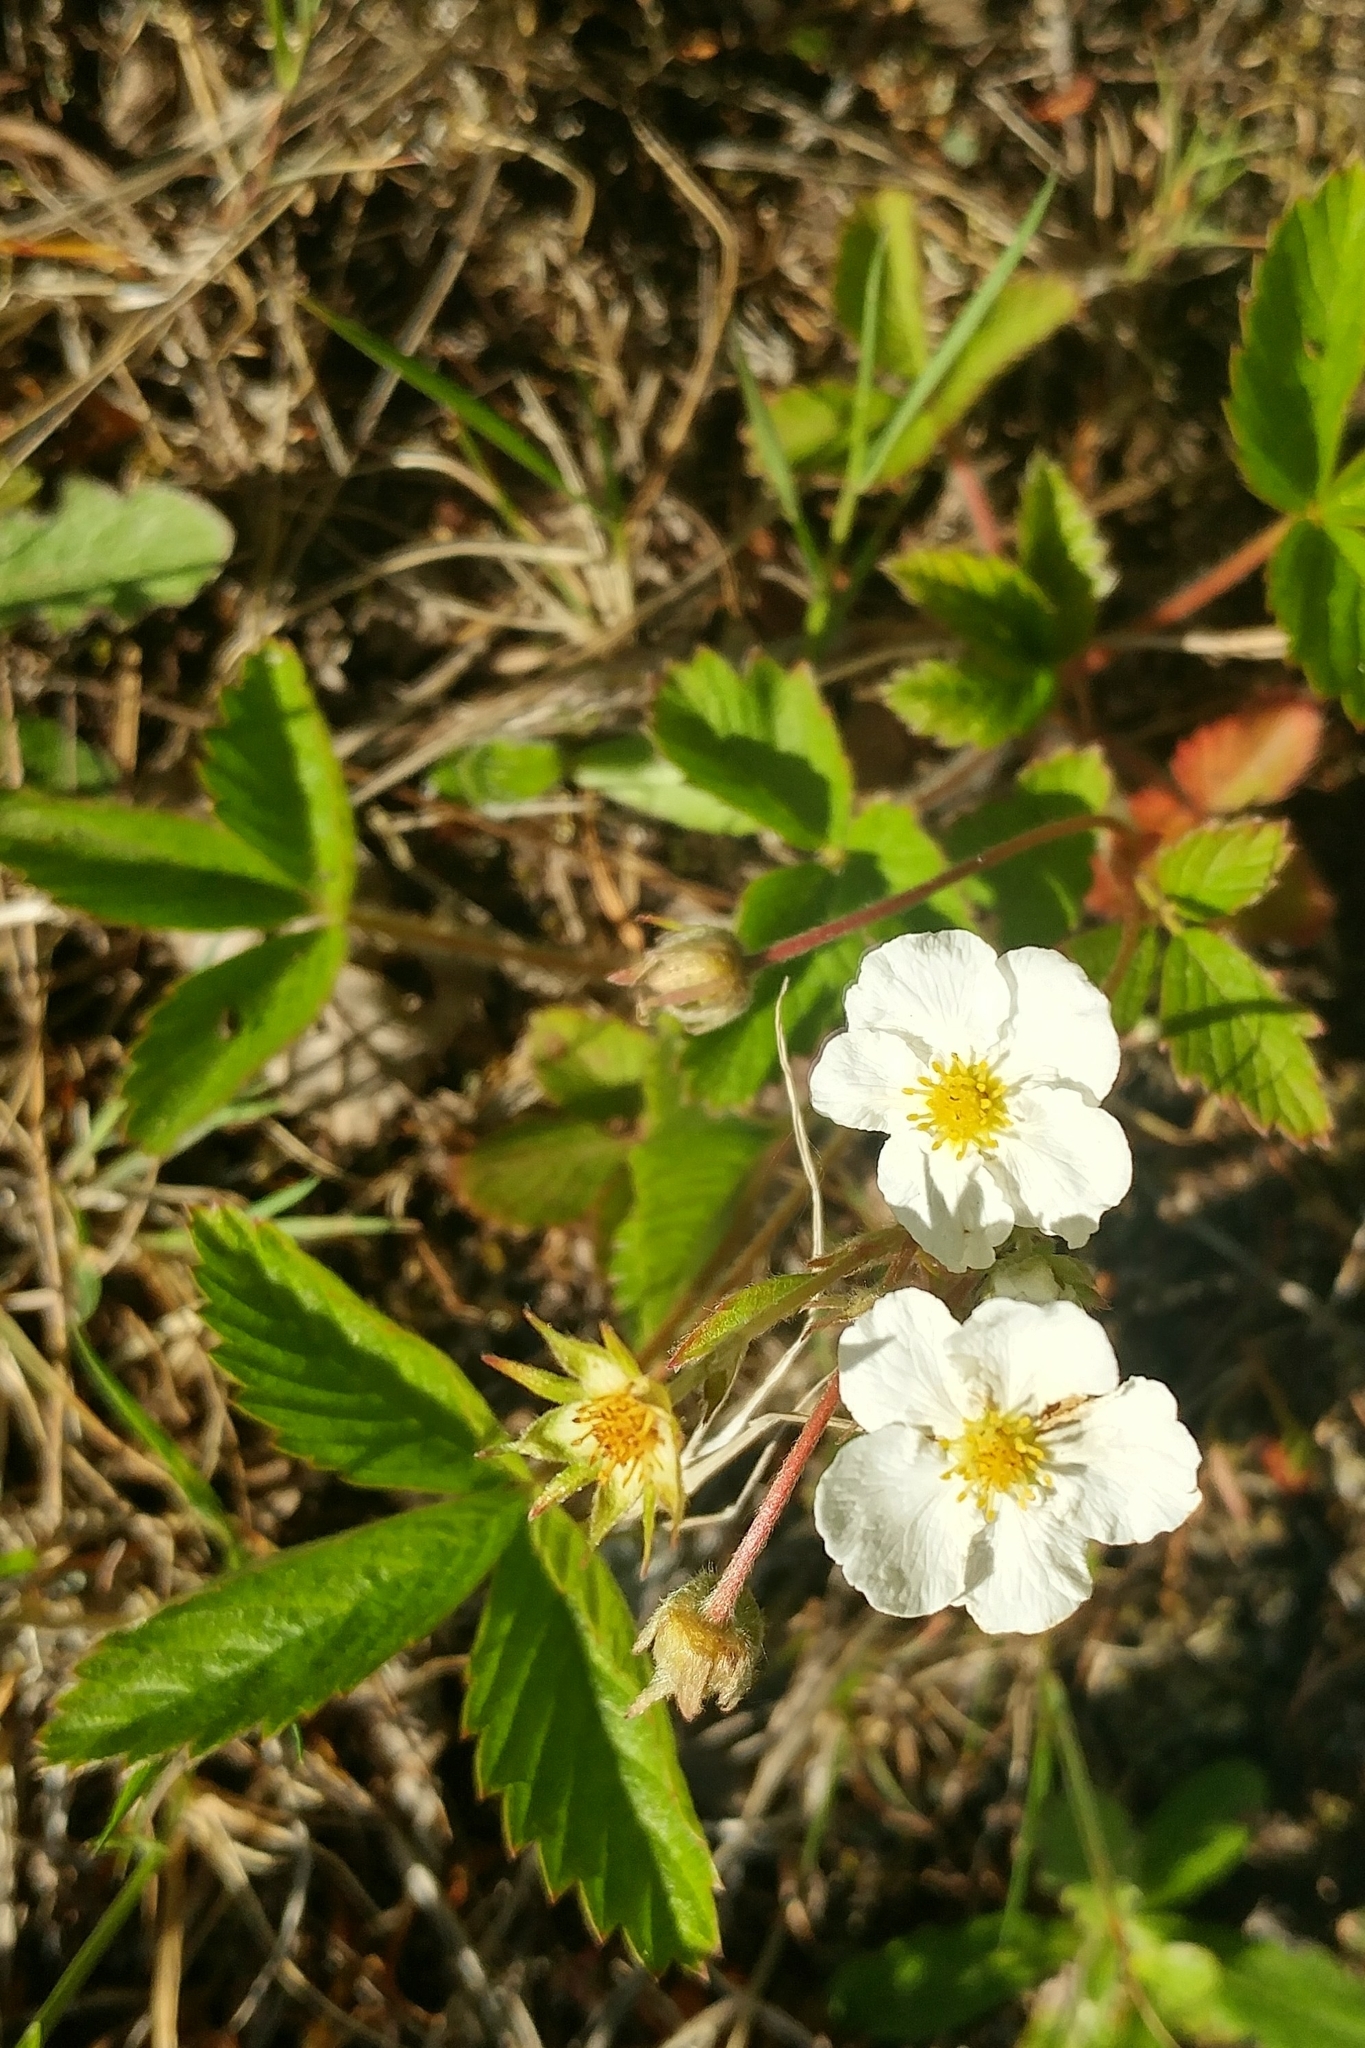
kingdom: Plantae
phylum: Tracheophyta
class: Magnoliopsida
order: Rosales
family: Rosaceae
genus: Fragaria
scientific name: Fragaria vesca
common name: Wild strawberry
